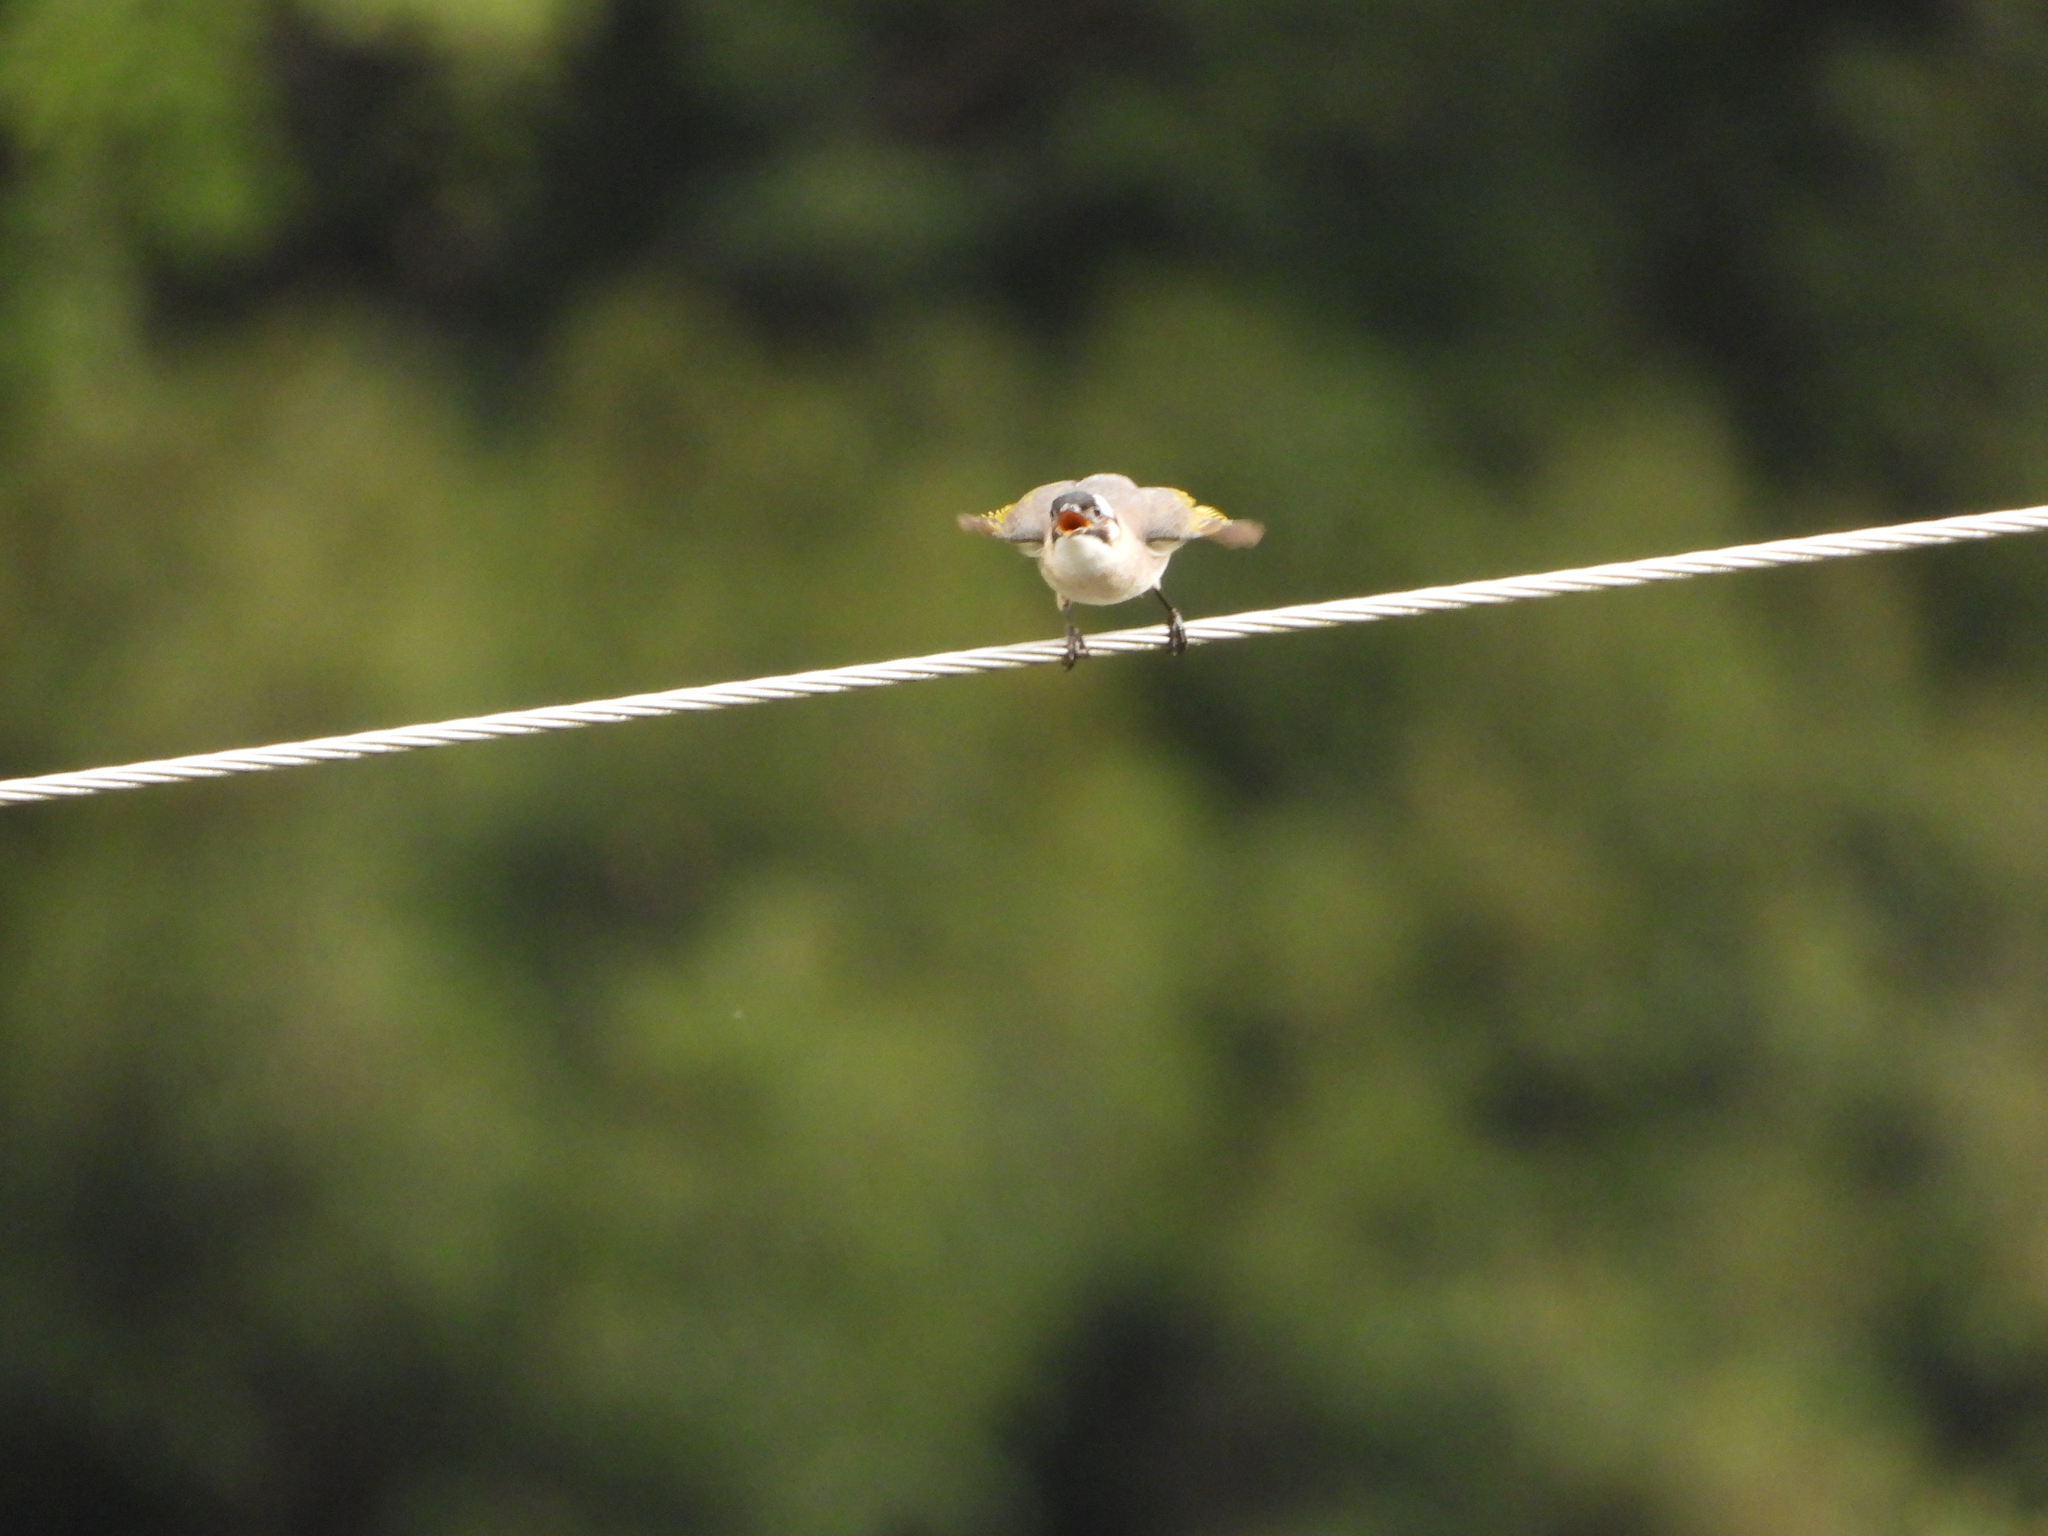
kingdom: Animalia
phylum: Chordata
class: Aves
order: Passeriformes
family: Pycnonotidae
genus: Pycnonotus
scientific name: Pycnonotus sinensis
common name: Light-vented bulbul
